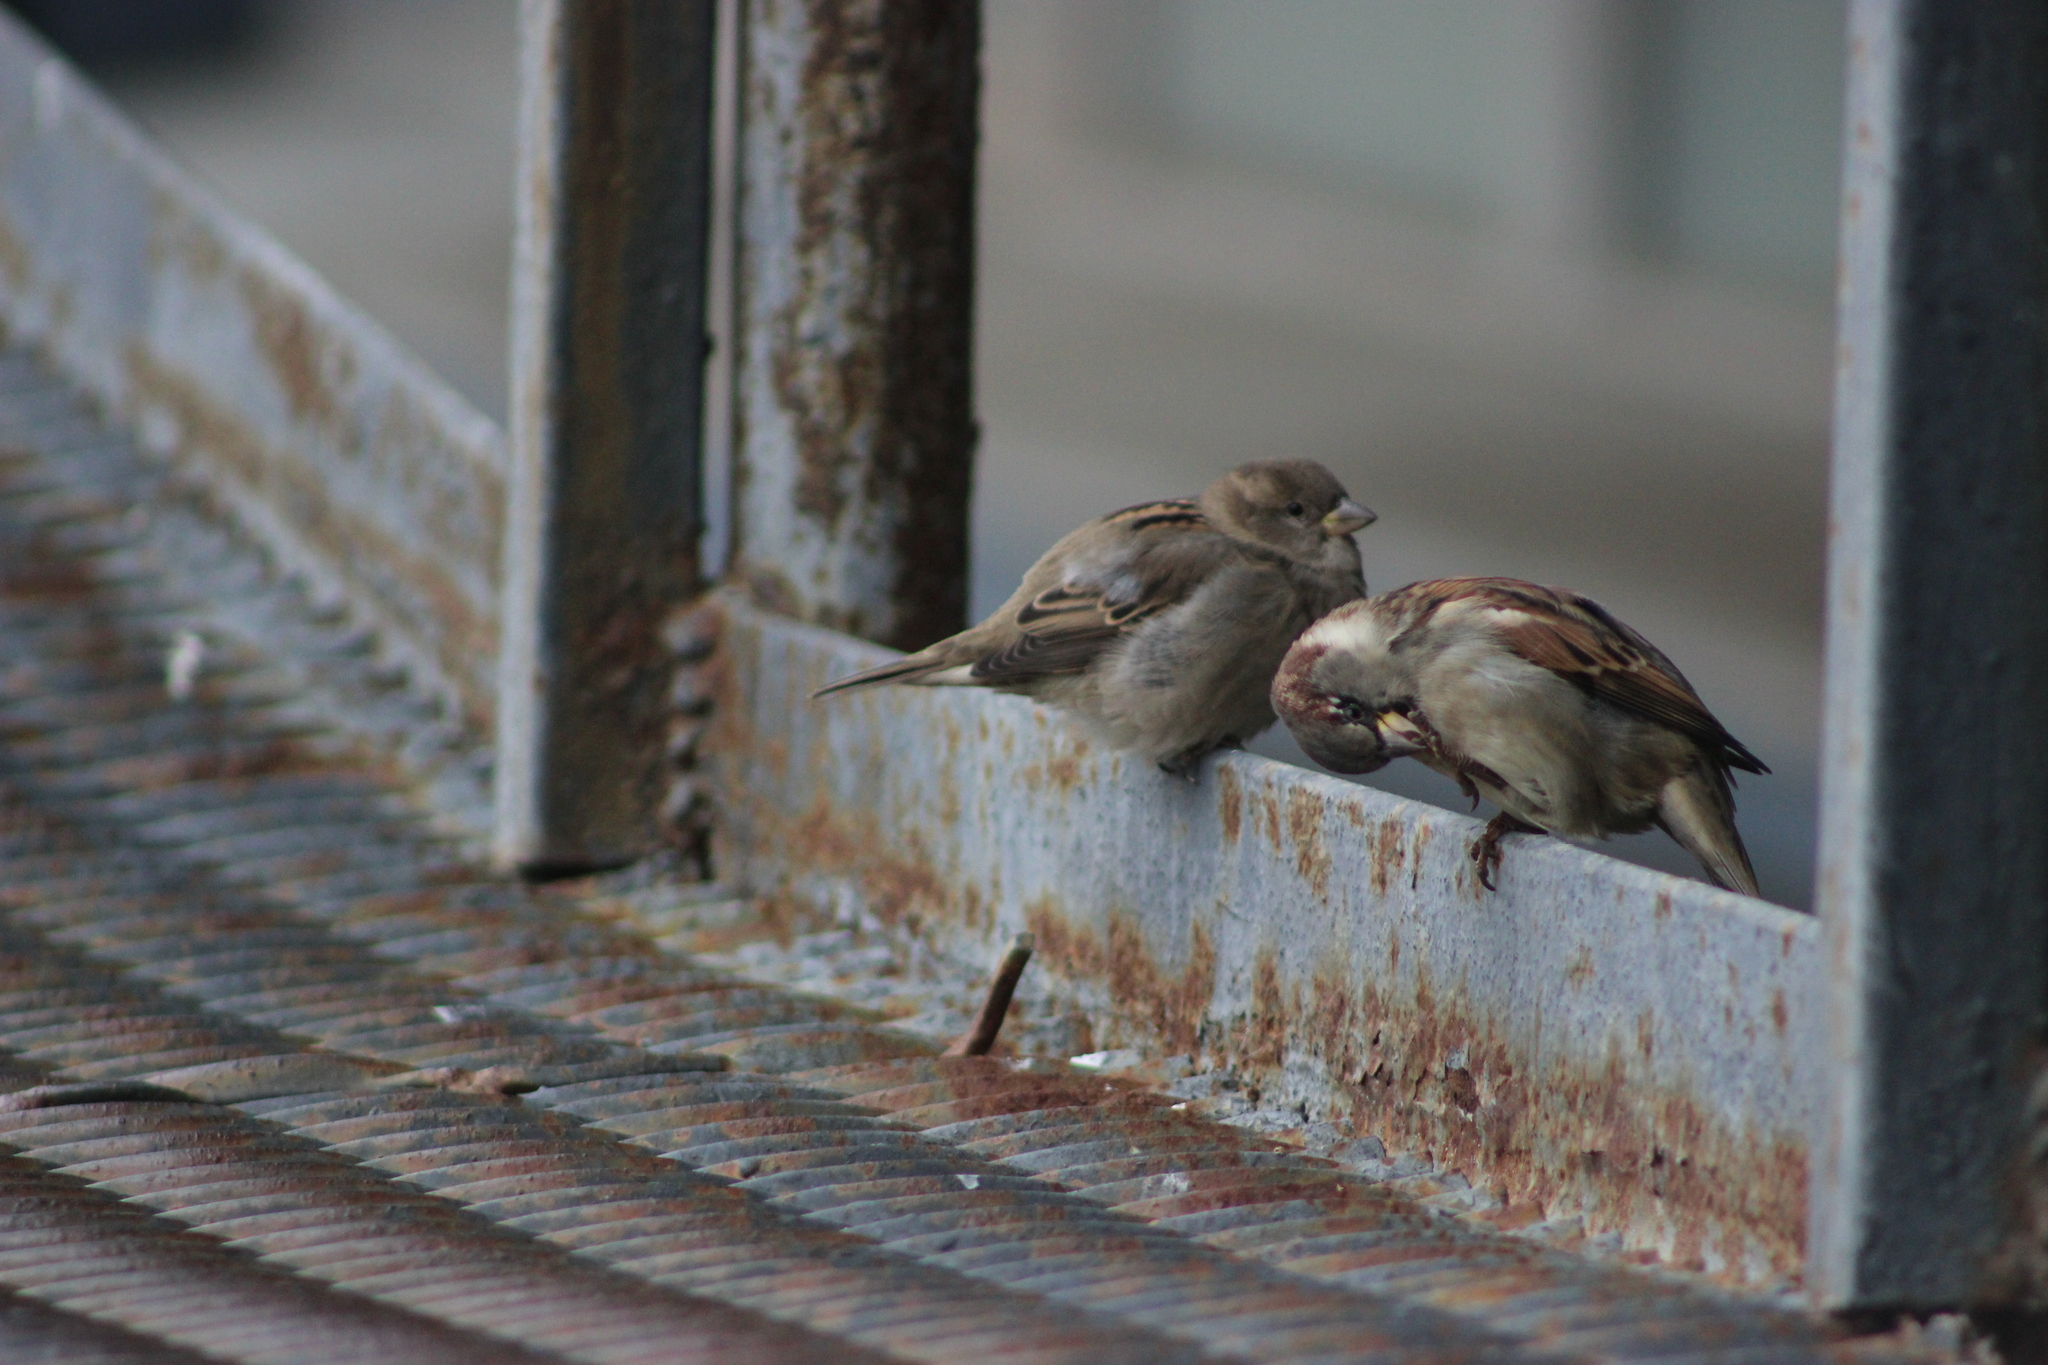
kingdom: Animalia
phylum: Chordata
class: Aves
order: Passeriformes
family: Passeridae
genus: Passer
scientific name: Passer domesticus
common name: House sparrow
